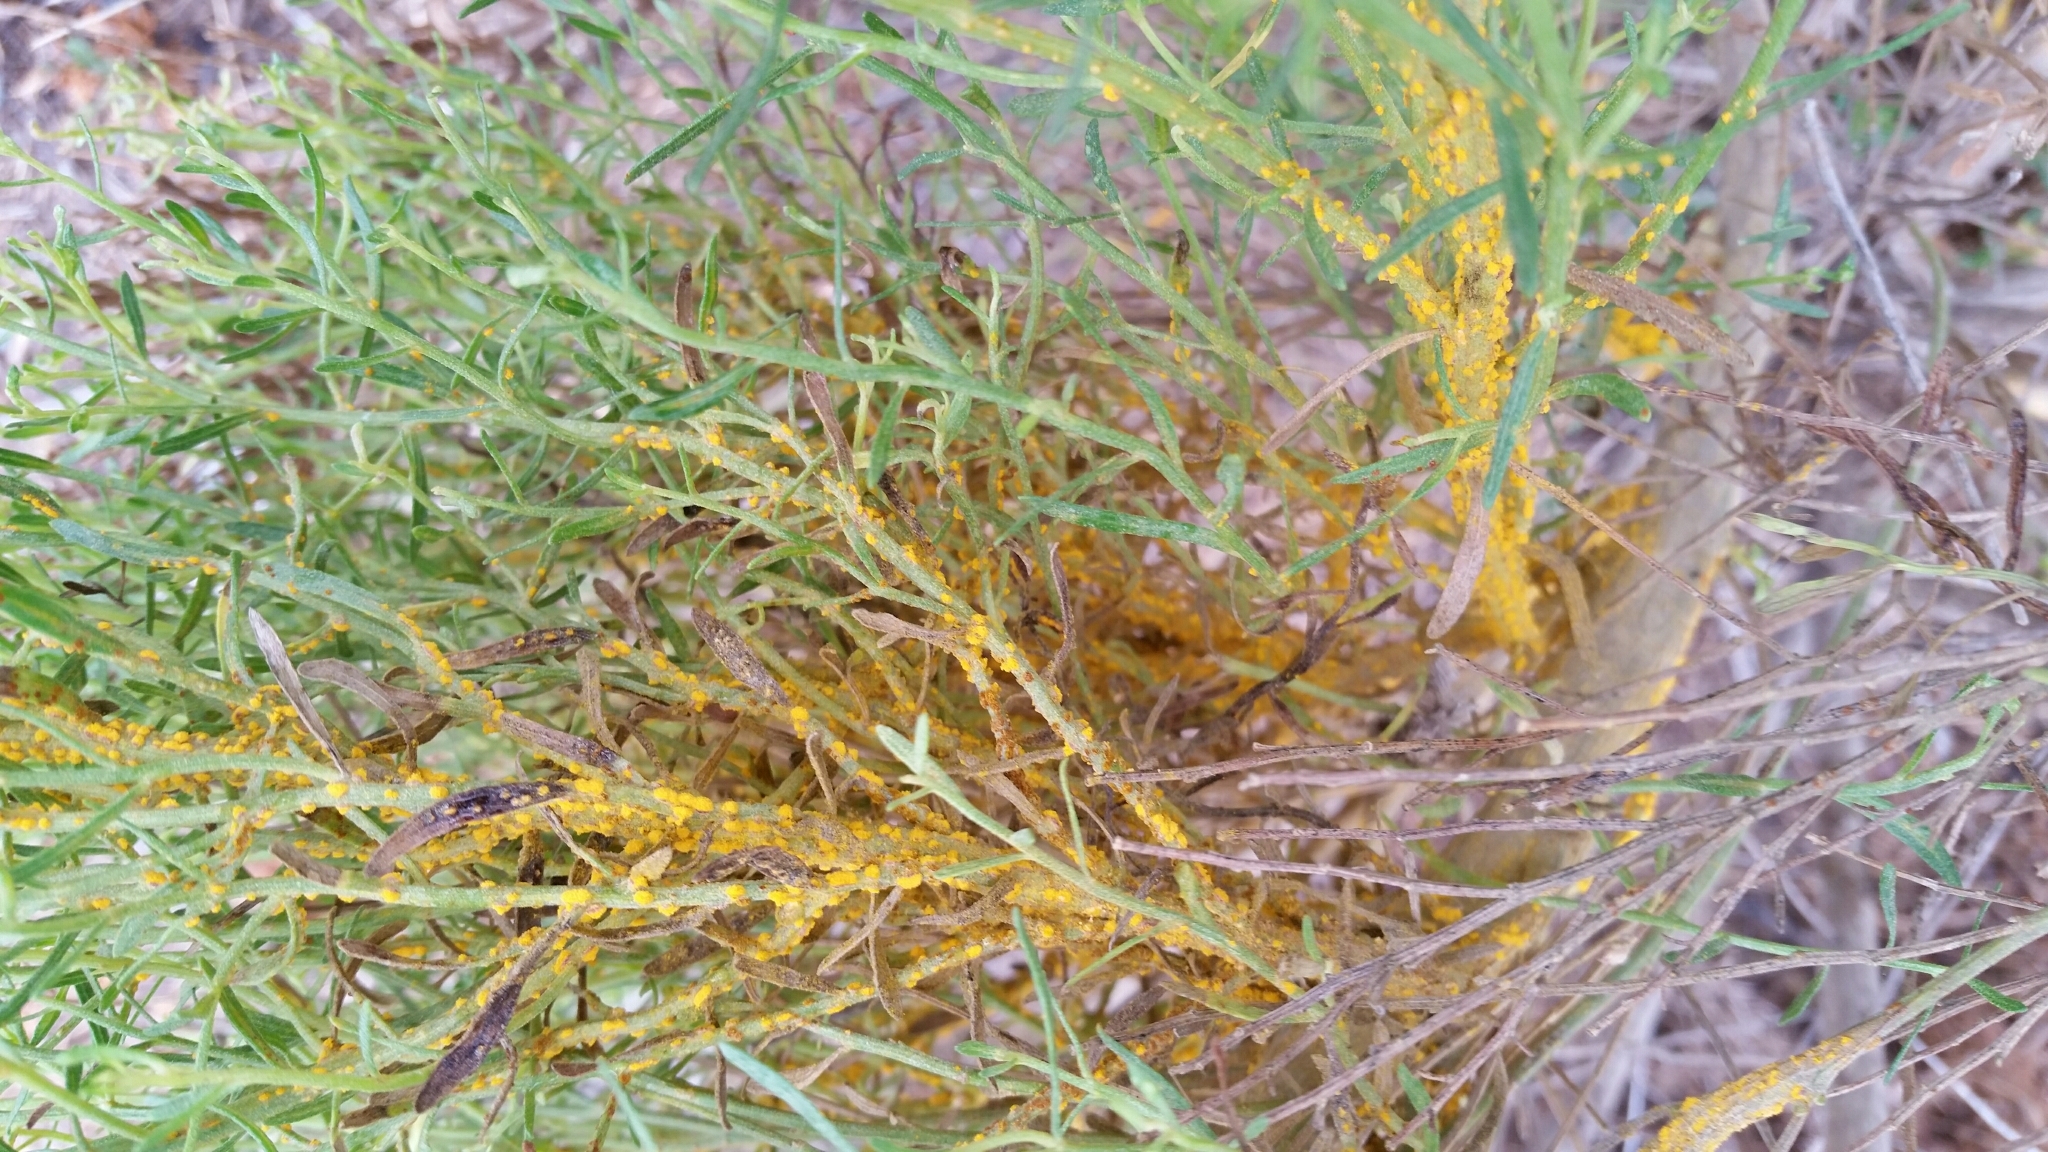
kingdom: Fungi
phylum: Basidiomycota
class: Pucciniomycetes
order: Pucciniales
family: Pucciniaceae
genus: Eriosporangium
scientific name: Eriosporangium evadens
